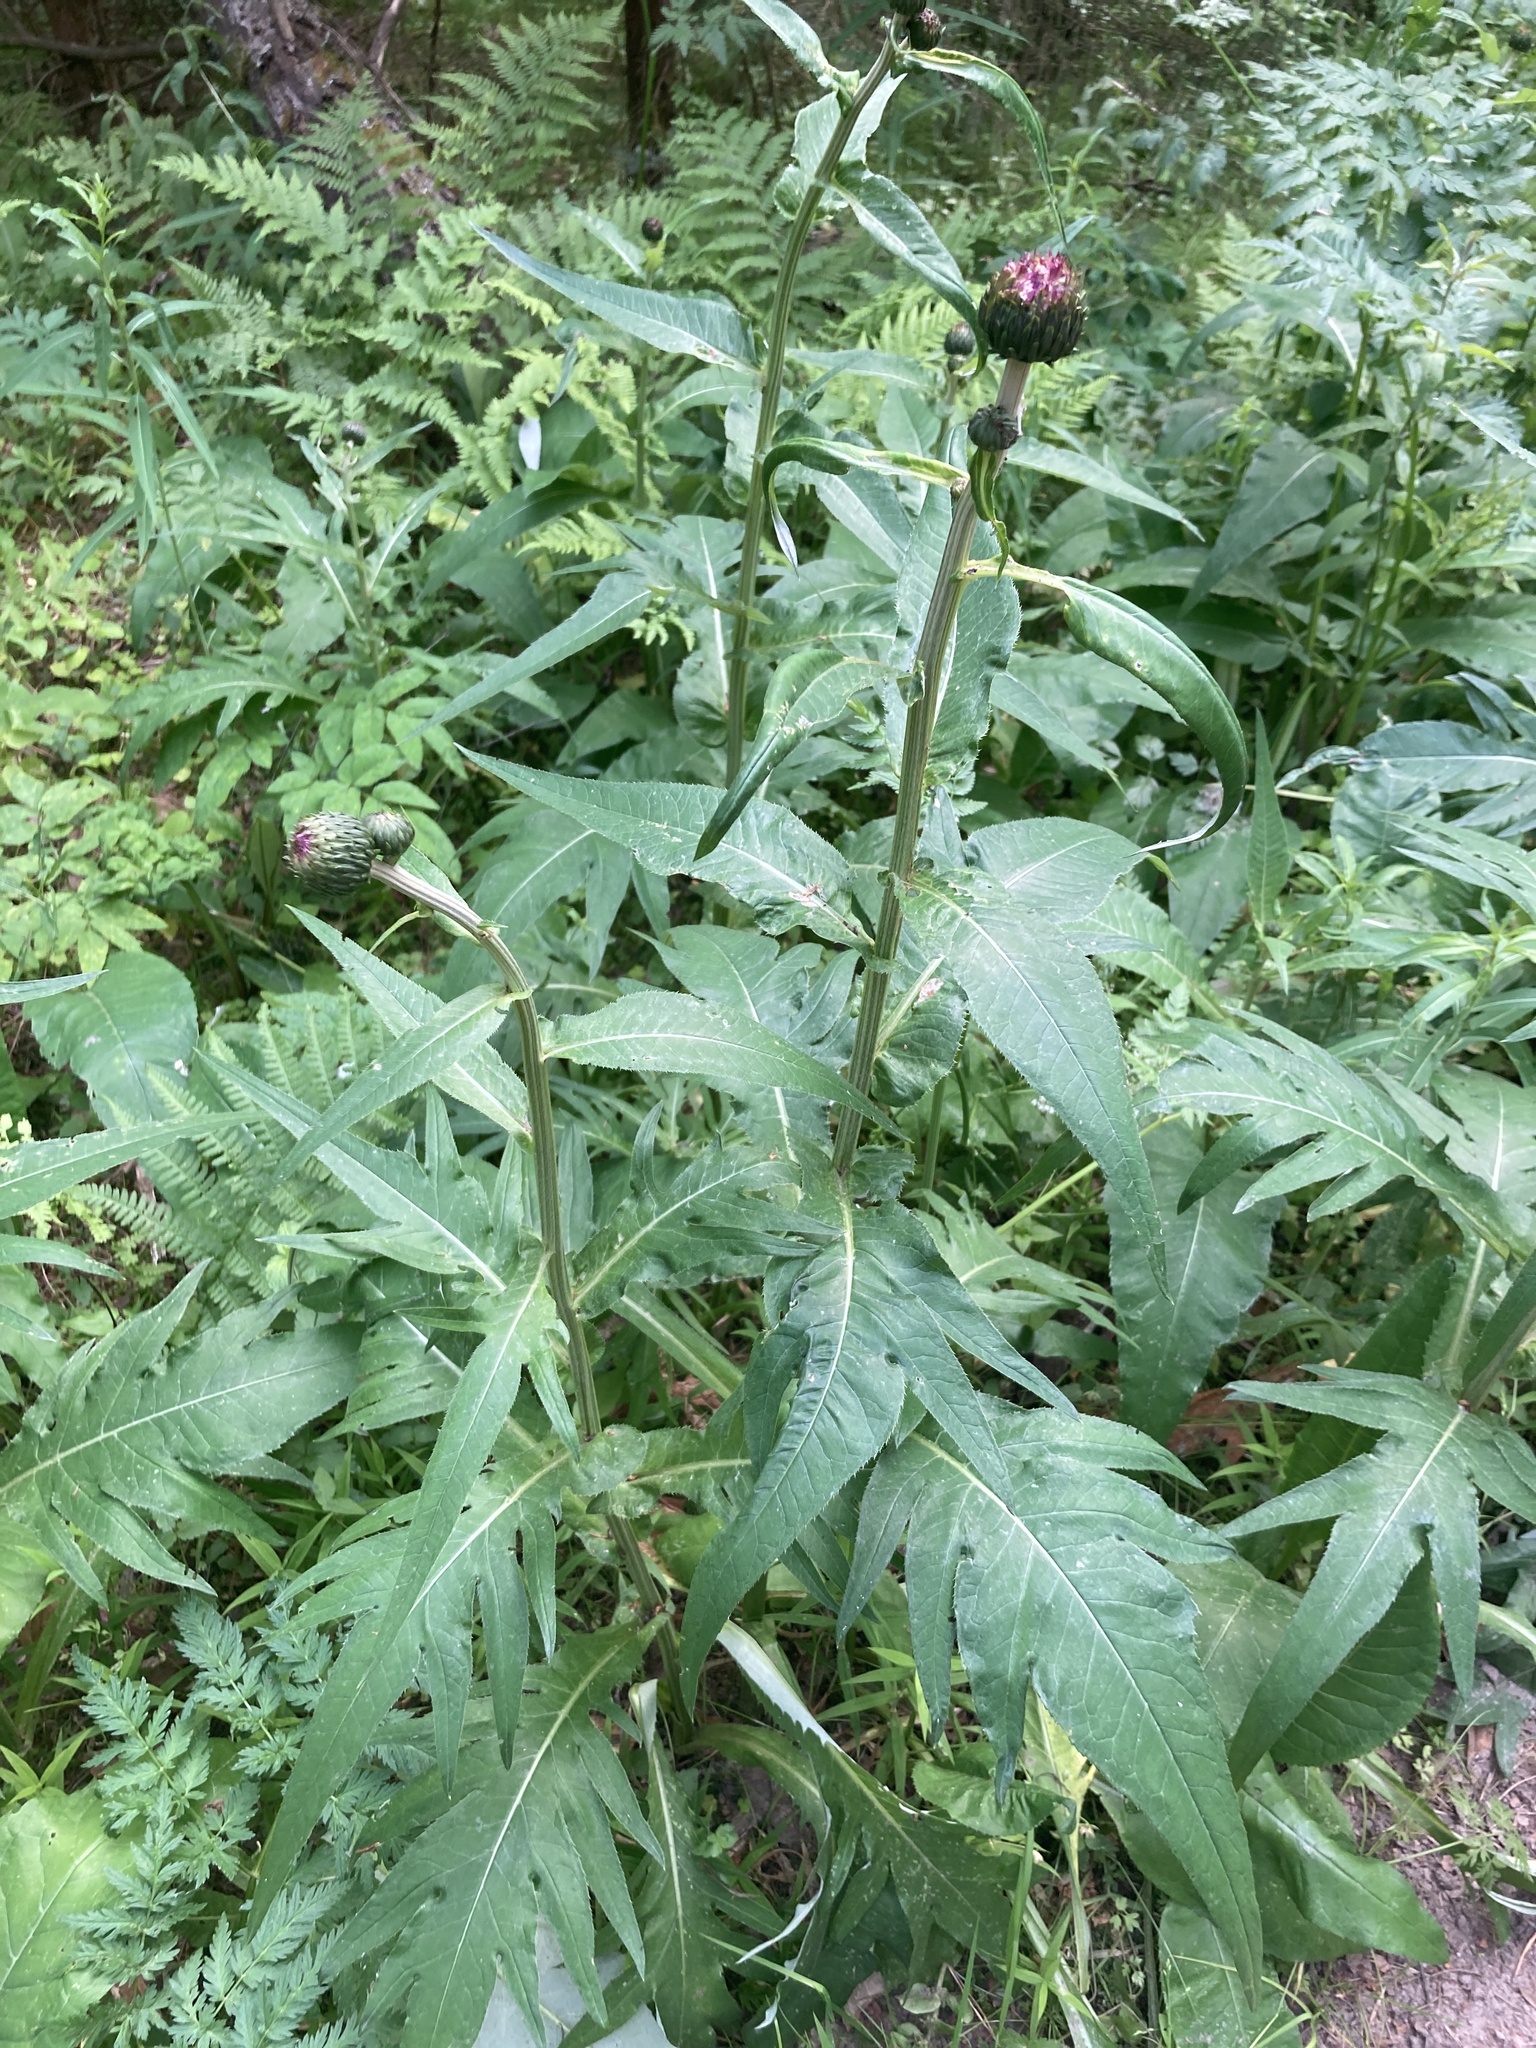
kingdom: Plantae
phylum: Tracheophyta
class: Magnoliopsida
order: Asterales
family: Asteraceae
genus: Cirsium
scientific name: Cirsium heterophyllum
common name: Melancholy thistle
